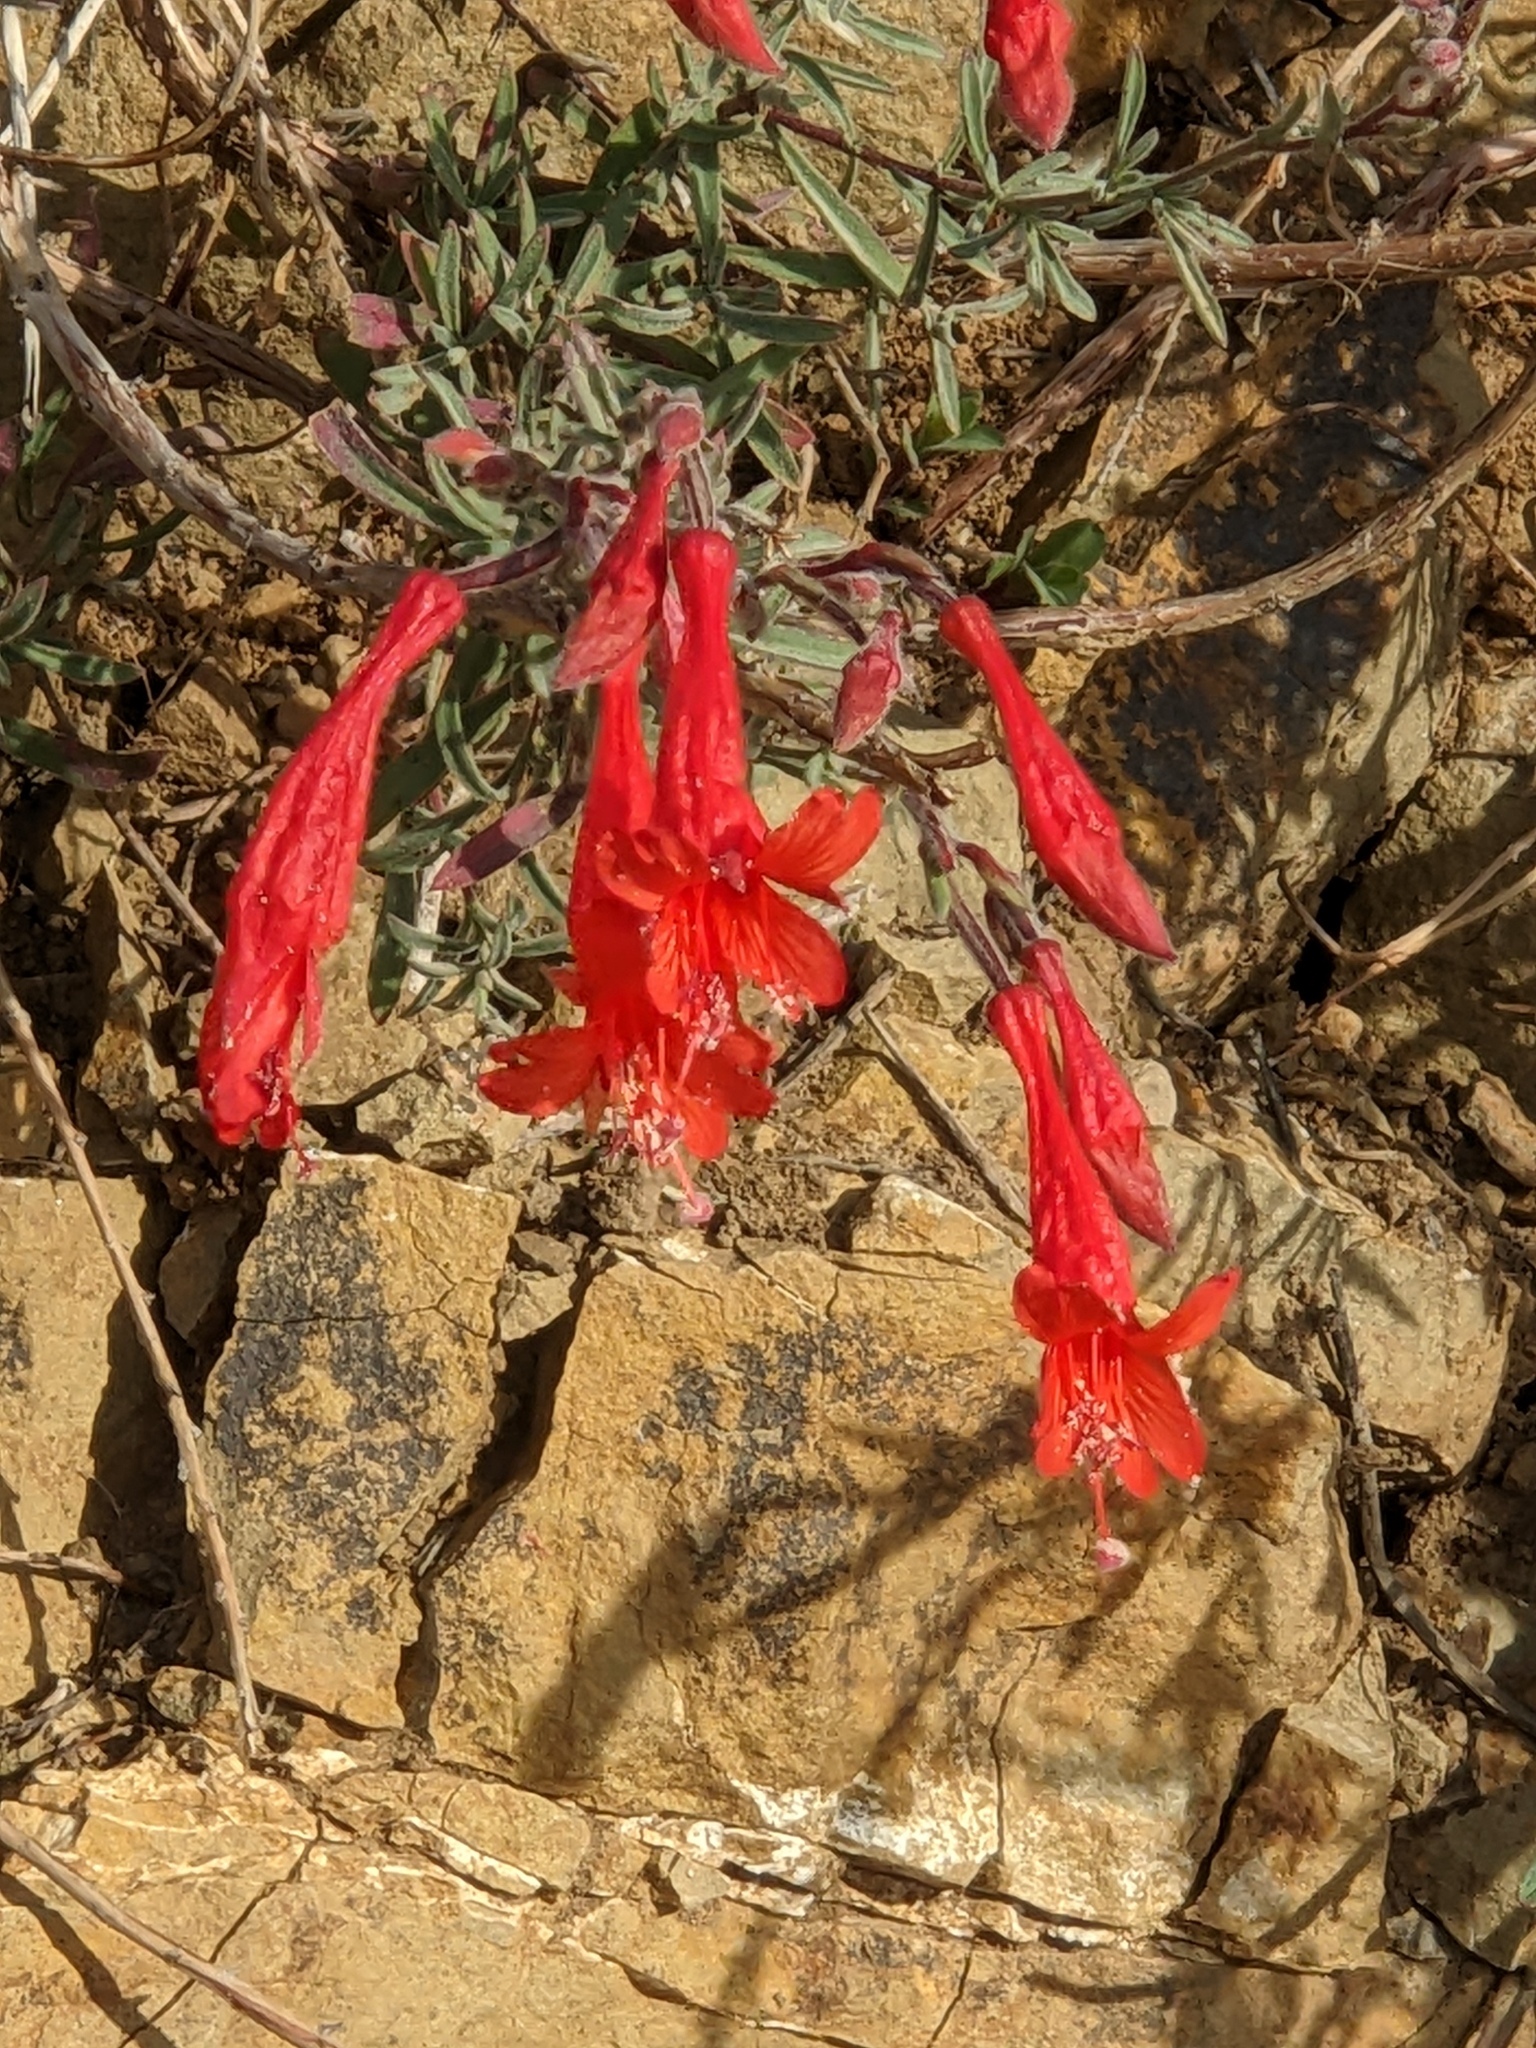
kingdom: Plantae
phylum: Tracheophyta
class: Magnoliopsida
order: Myrtales
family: Onagraceae
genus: Epilobium
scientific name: Epilobium canum
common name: California-fuchsia
